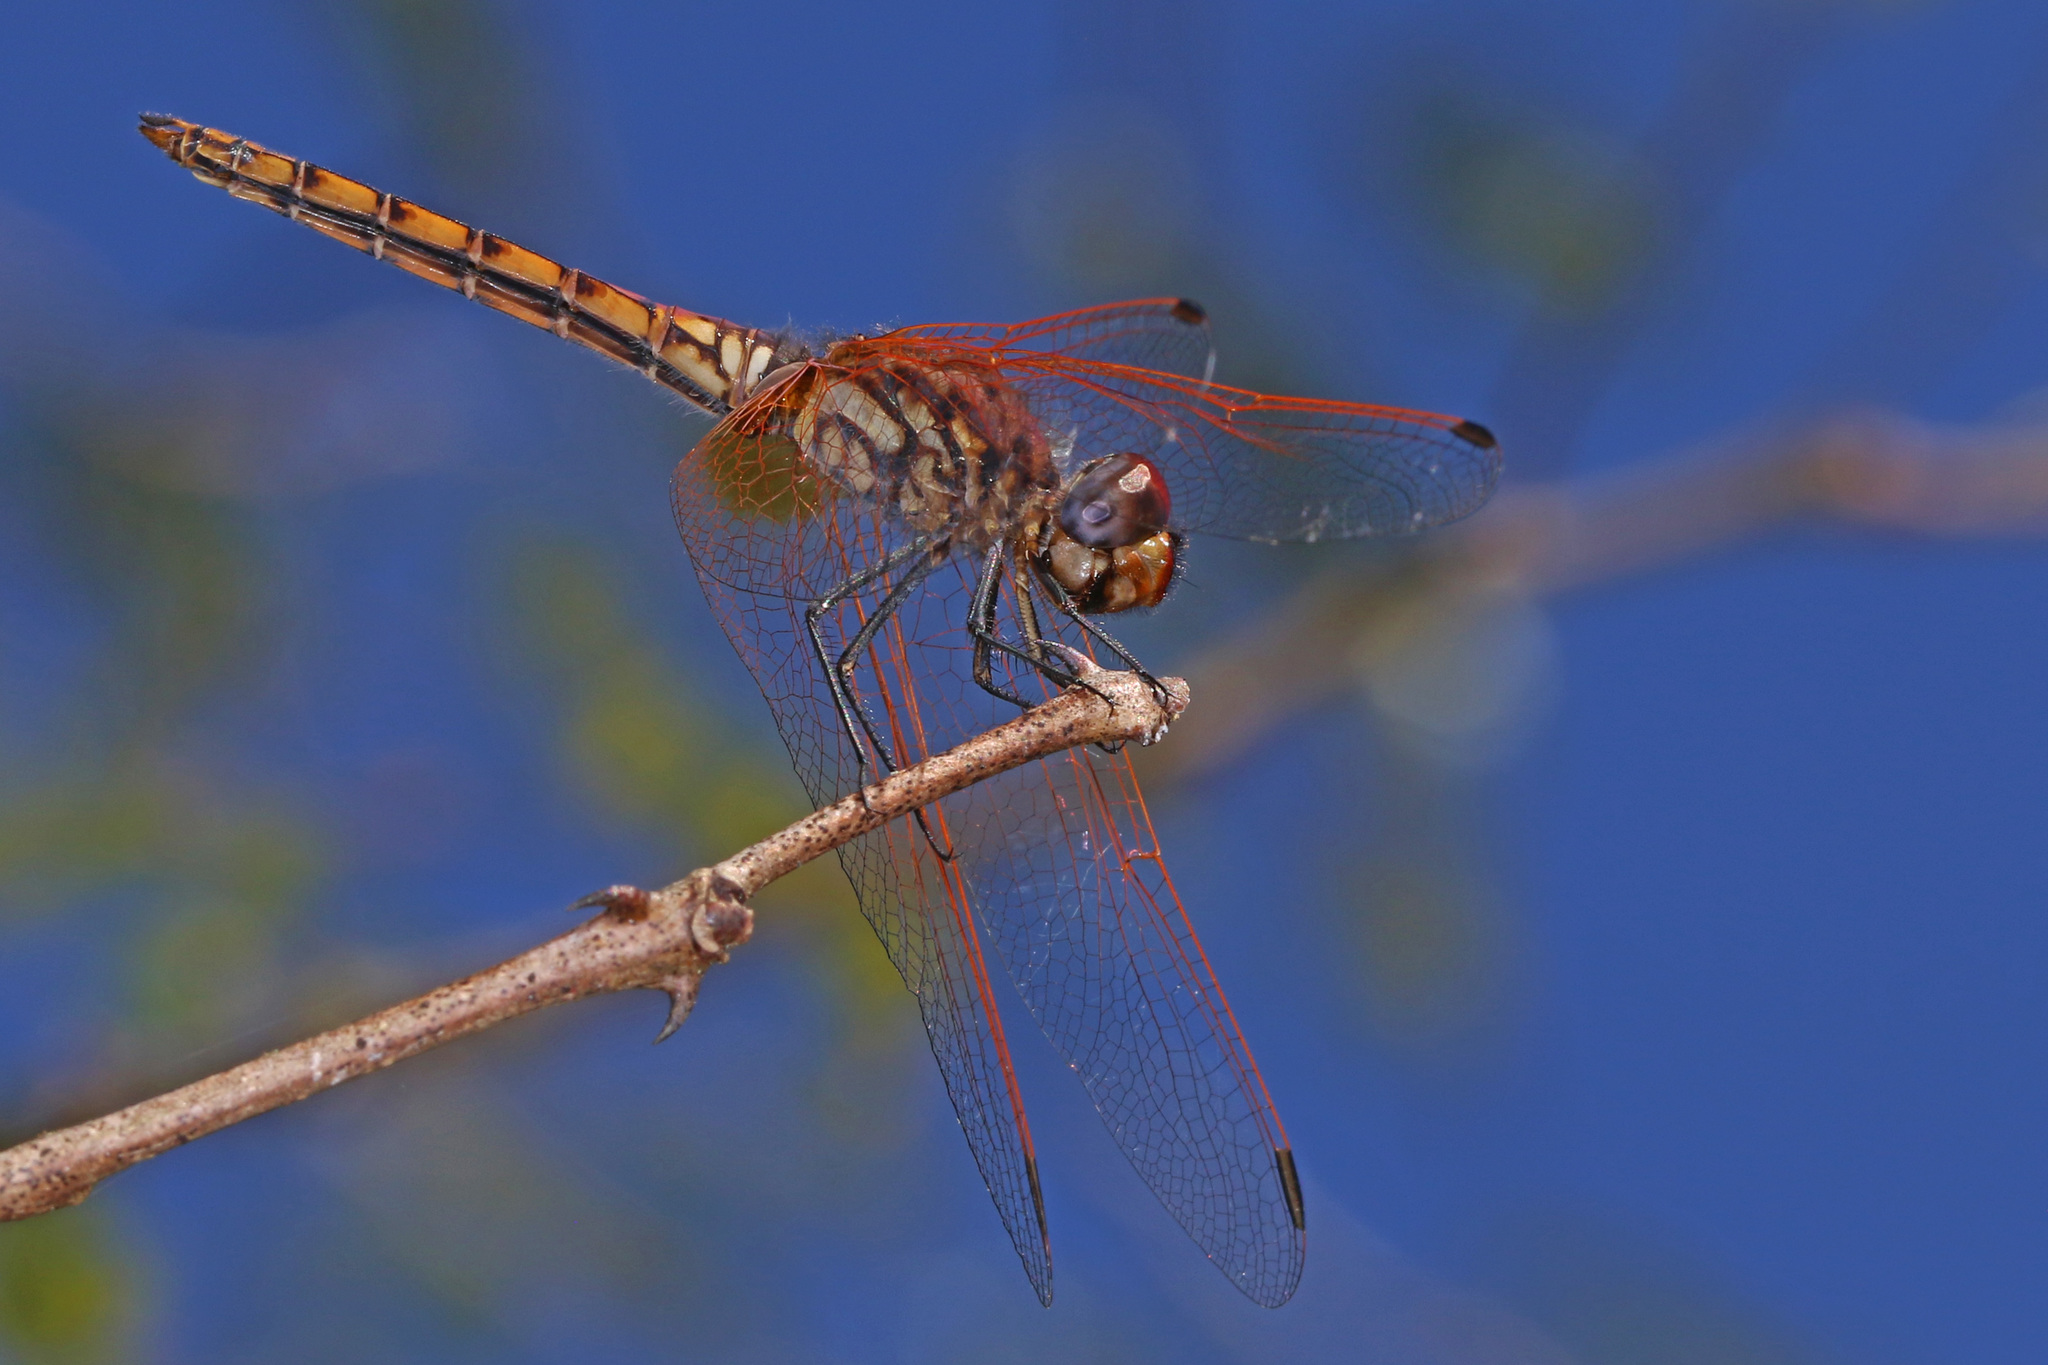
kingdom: Animalia
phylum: Arthropoda
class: Insecta
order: Odonata
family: Libellulidae
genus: Trithemis
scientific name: Trithemis annulata
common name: Violet dropwing
